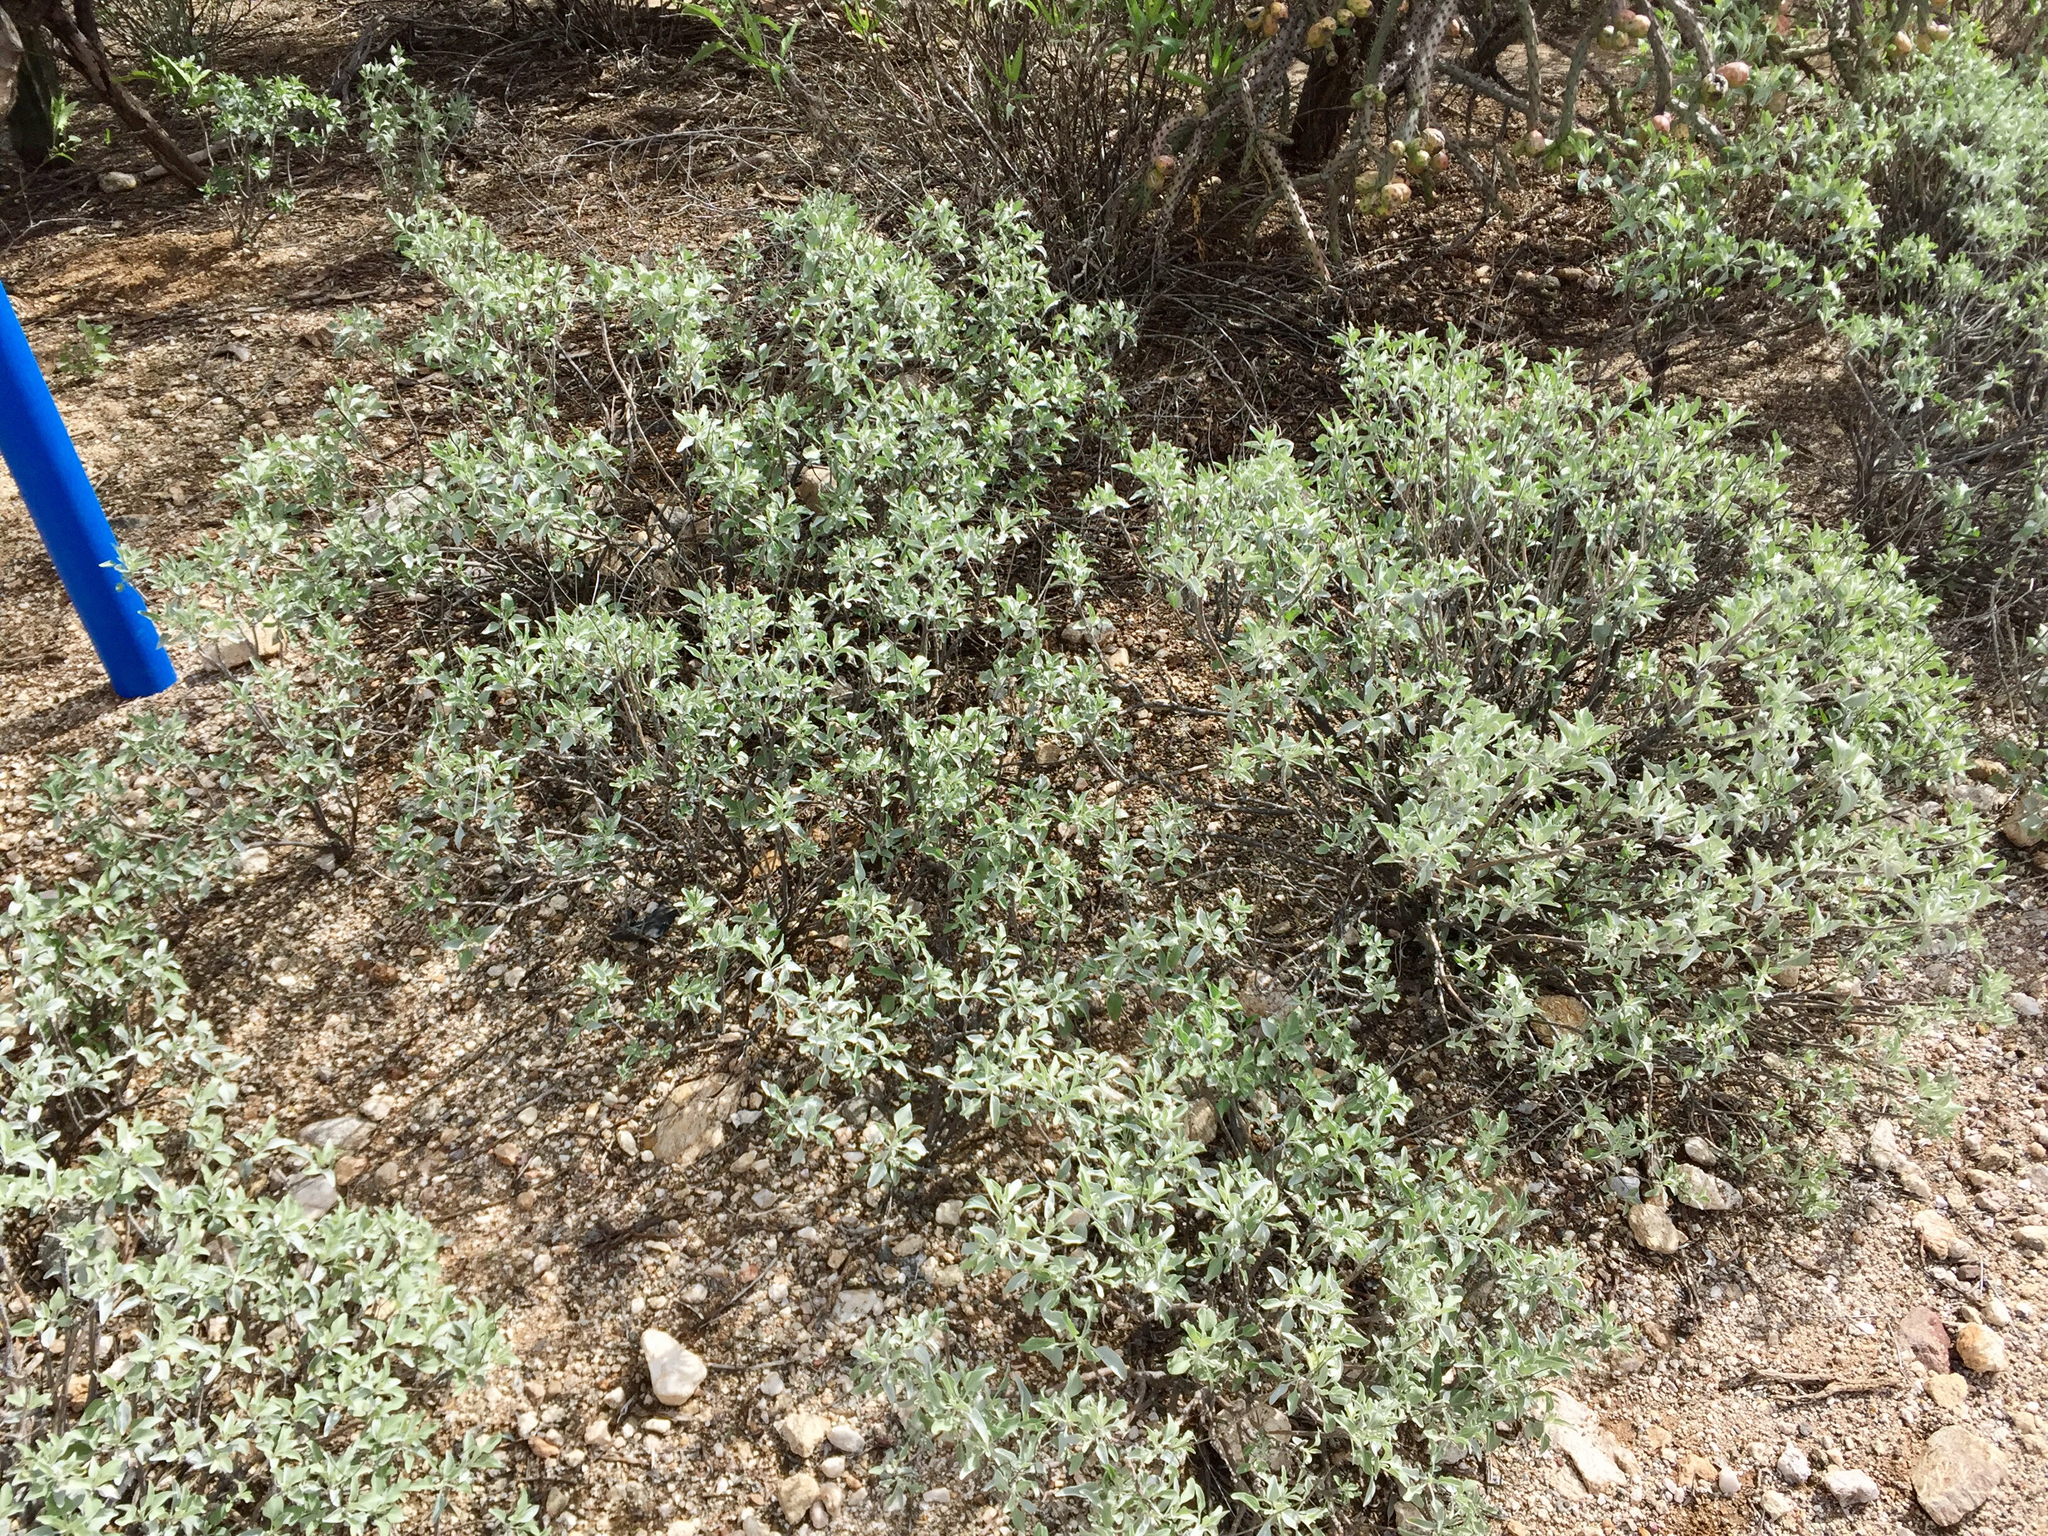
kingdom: Plantae
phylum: Tracheophyta
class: Magnoliopsida
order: Asterales
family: Asteraceae
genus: Encelia
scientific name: Encelia farinosa
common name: Brittlebush
